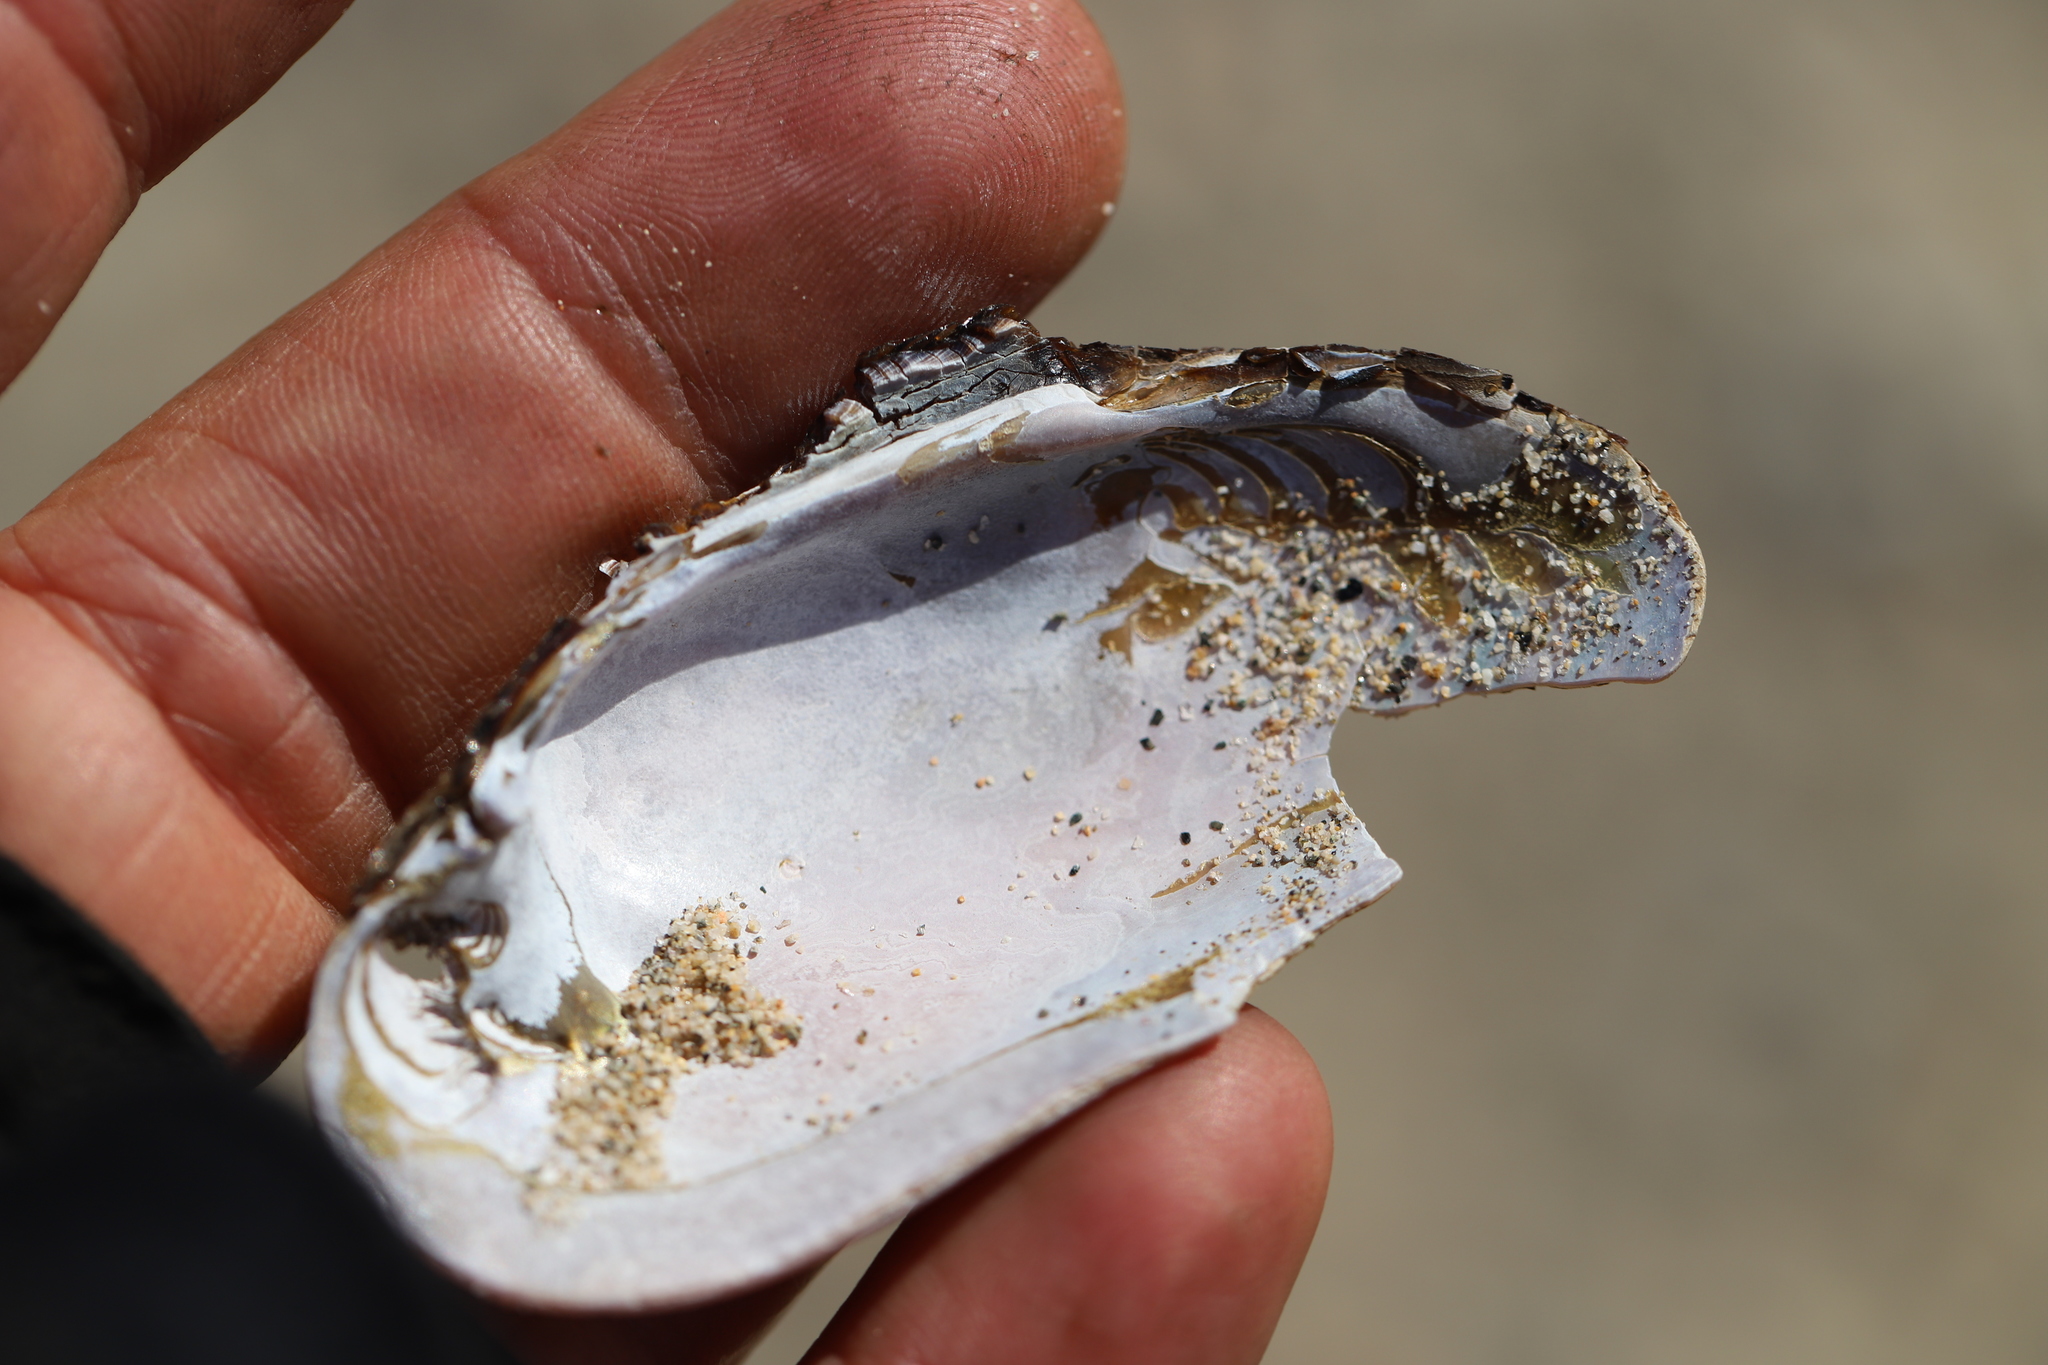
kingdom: Animalia
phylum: Mollusca
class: Bivalvia
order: Unionida
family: Margaritiferidae
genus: Margaritifera
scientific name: Margaritifera falcata
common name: Western pearlshell
